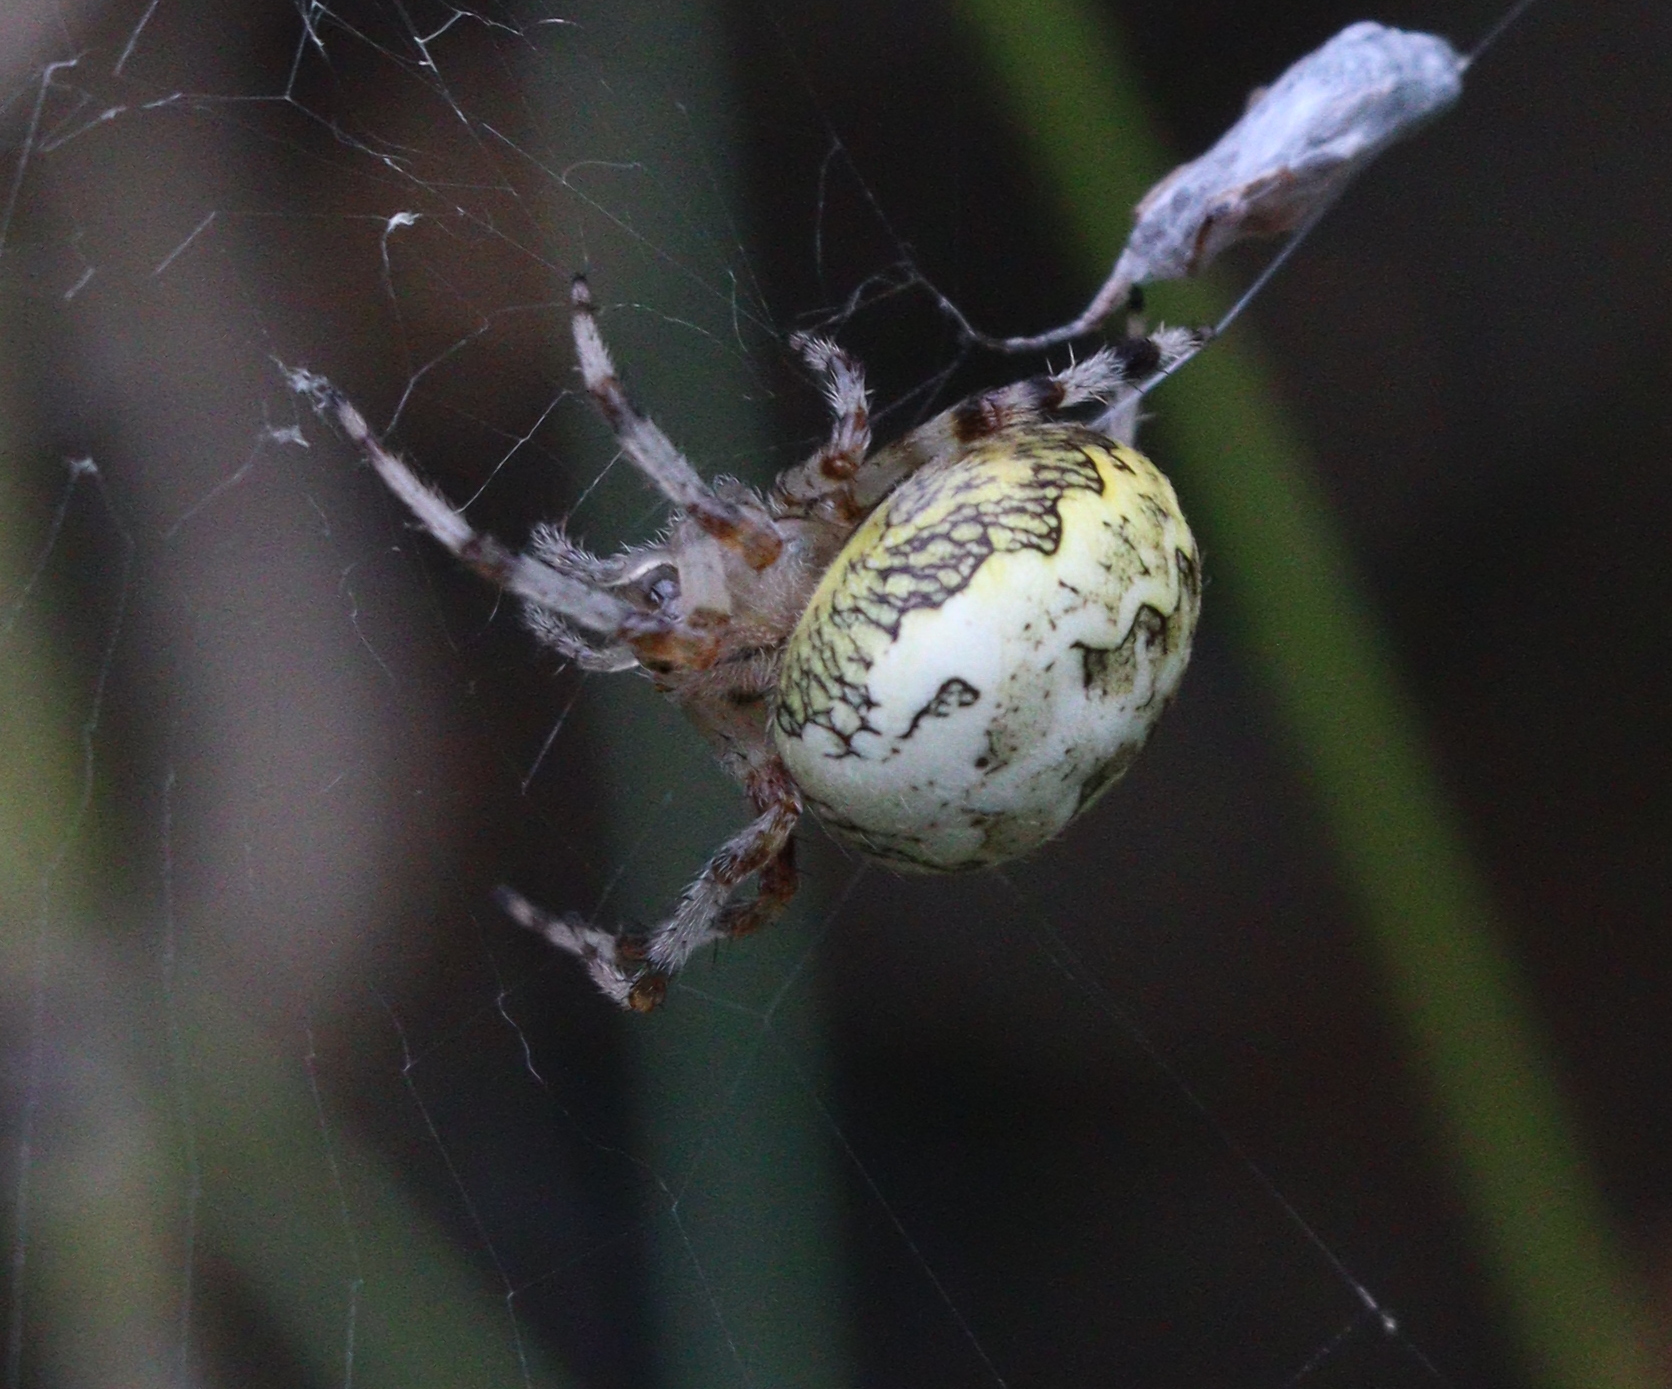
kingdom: Animalia
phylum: Arthropoda
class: Arachnida
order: Araneae
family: Araneidae
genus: Araneus
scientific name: Araneus marmoreus
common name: Marbled orbweaver
